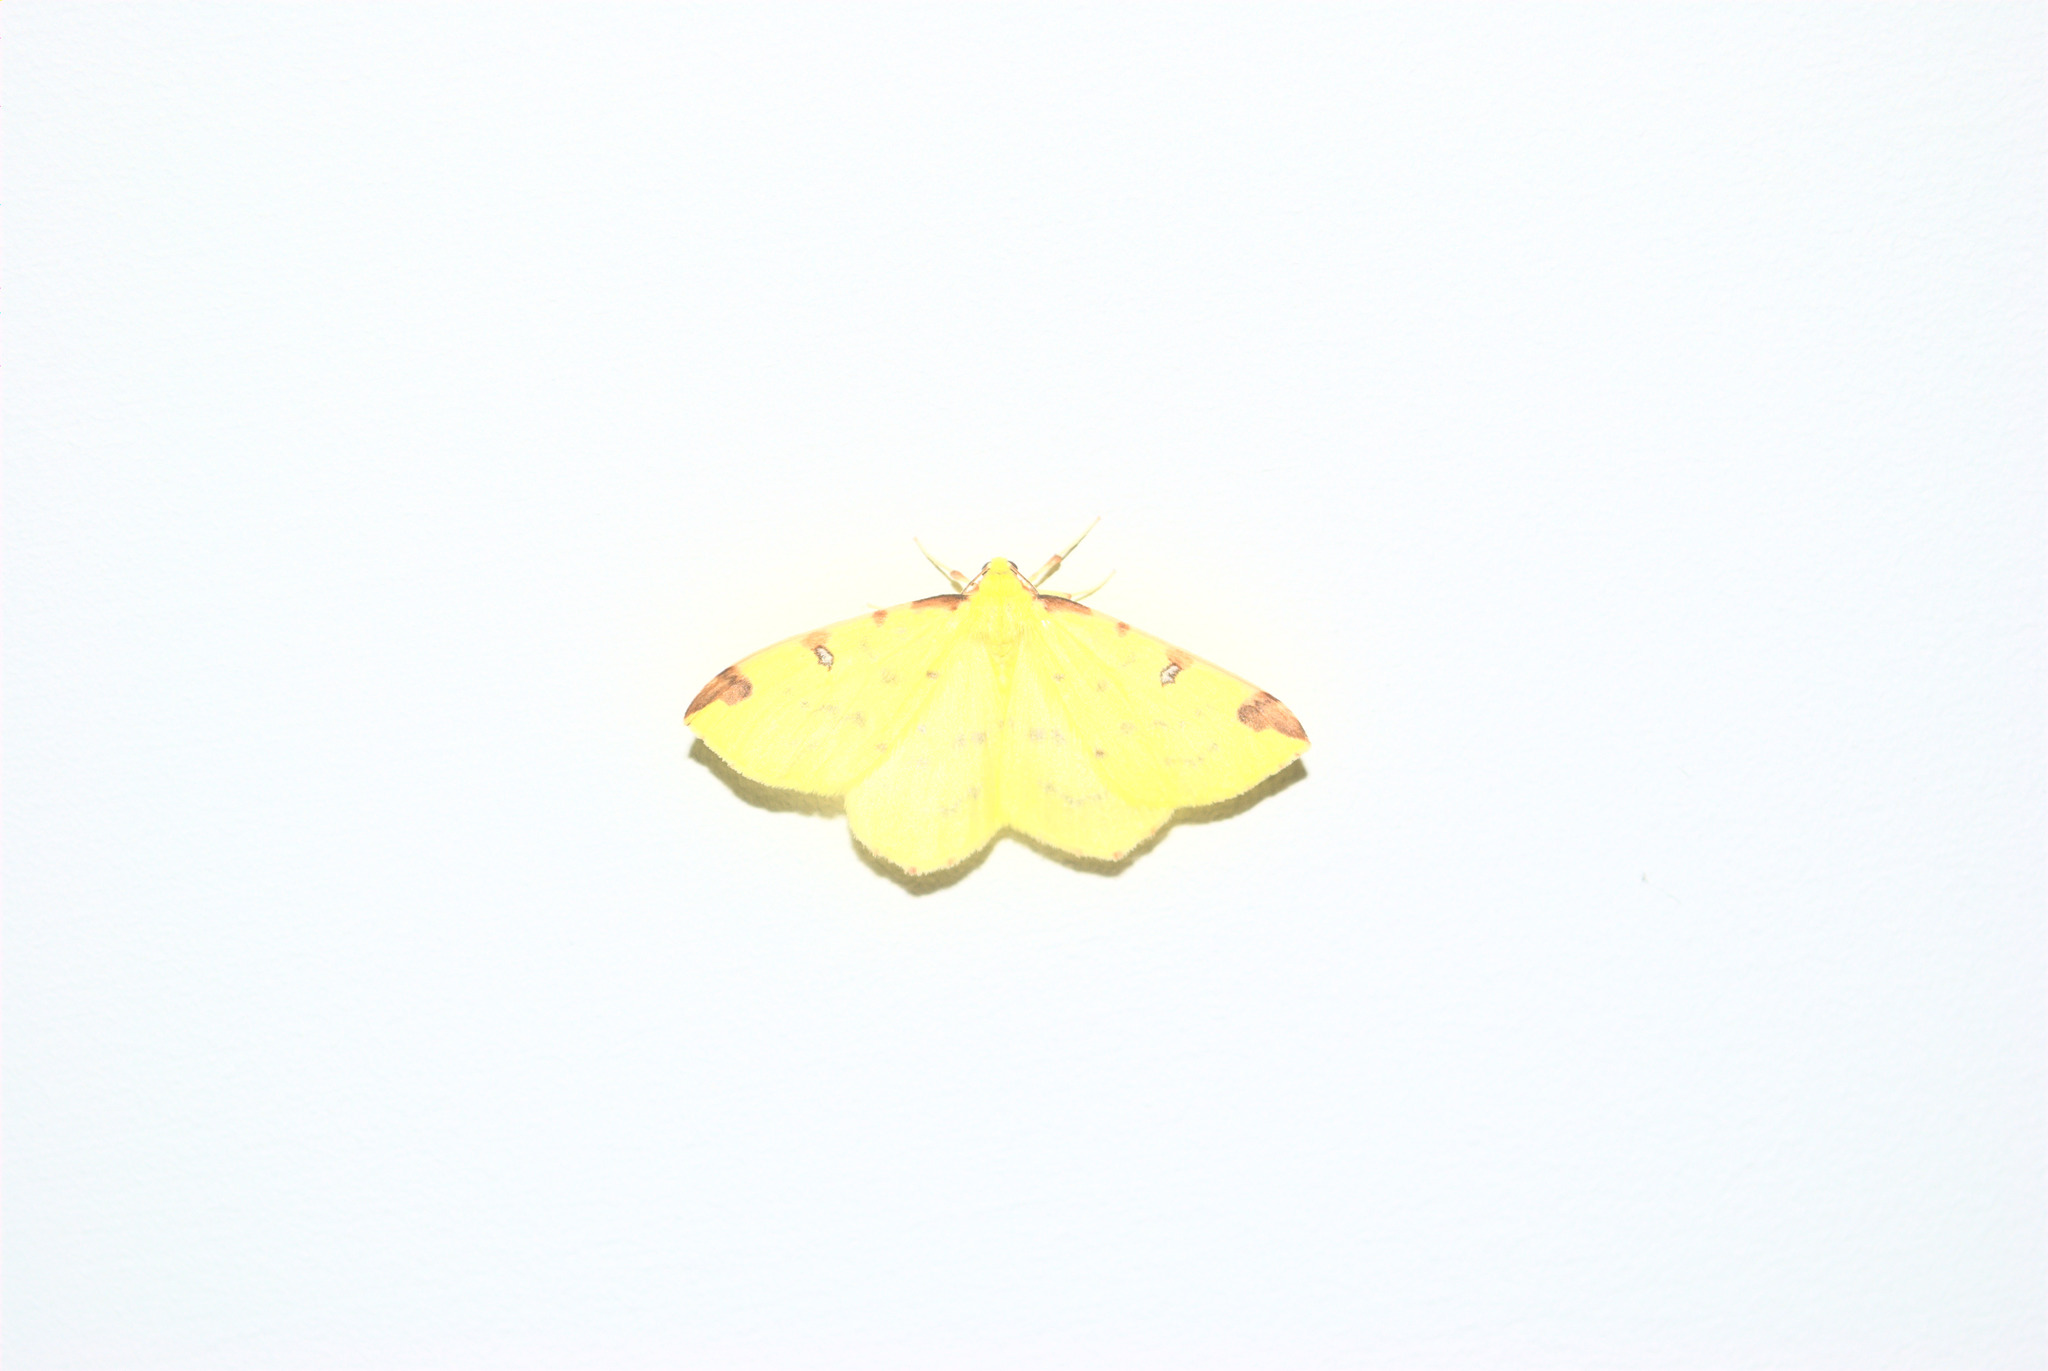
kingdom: Animalia
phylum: Arthropoda
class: Insecta
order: Lepidoptera
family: Geometridae
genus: Opisthograptis
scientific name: Opisthograptis luteolata
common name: Brimstone moth
